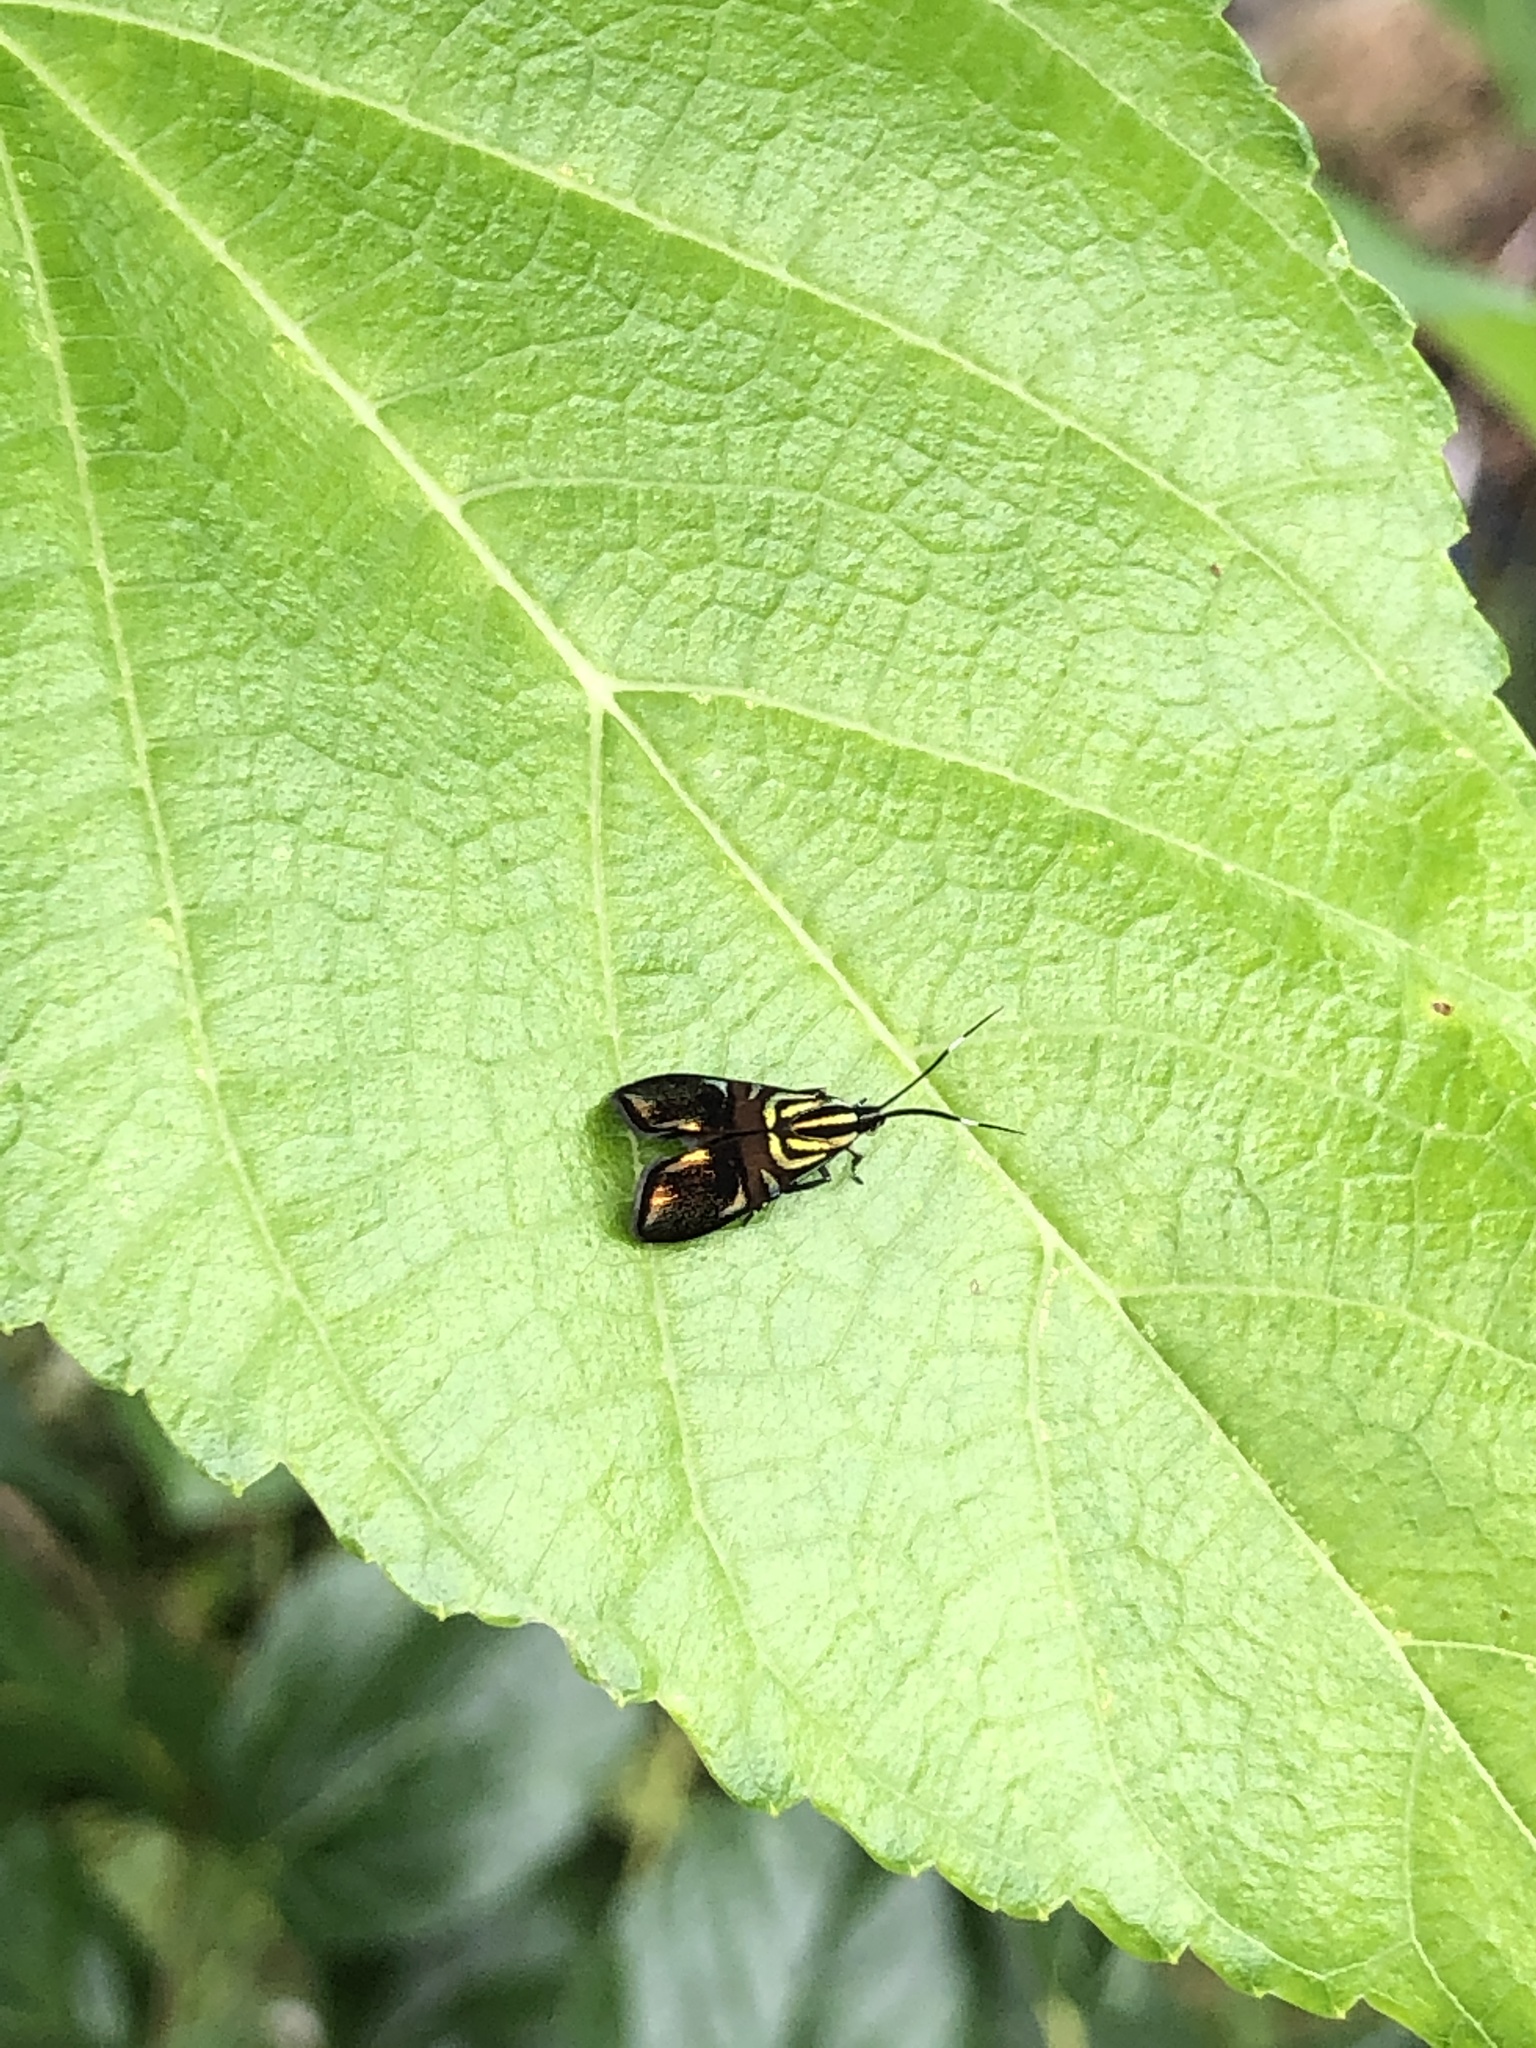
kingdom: Animalia
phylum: Arthropoda
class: Insecta
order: Lepidoptera
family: Choreutidae
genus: Saptha
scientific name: Saptha divitiosa
